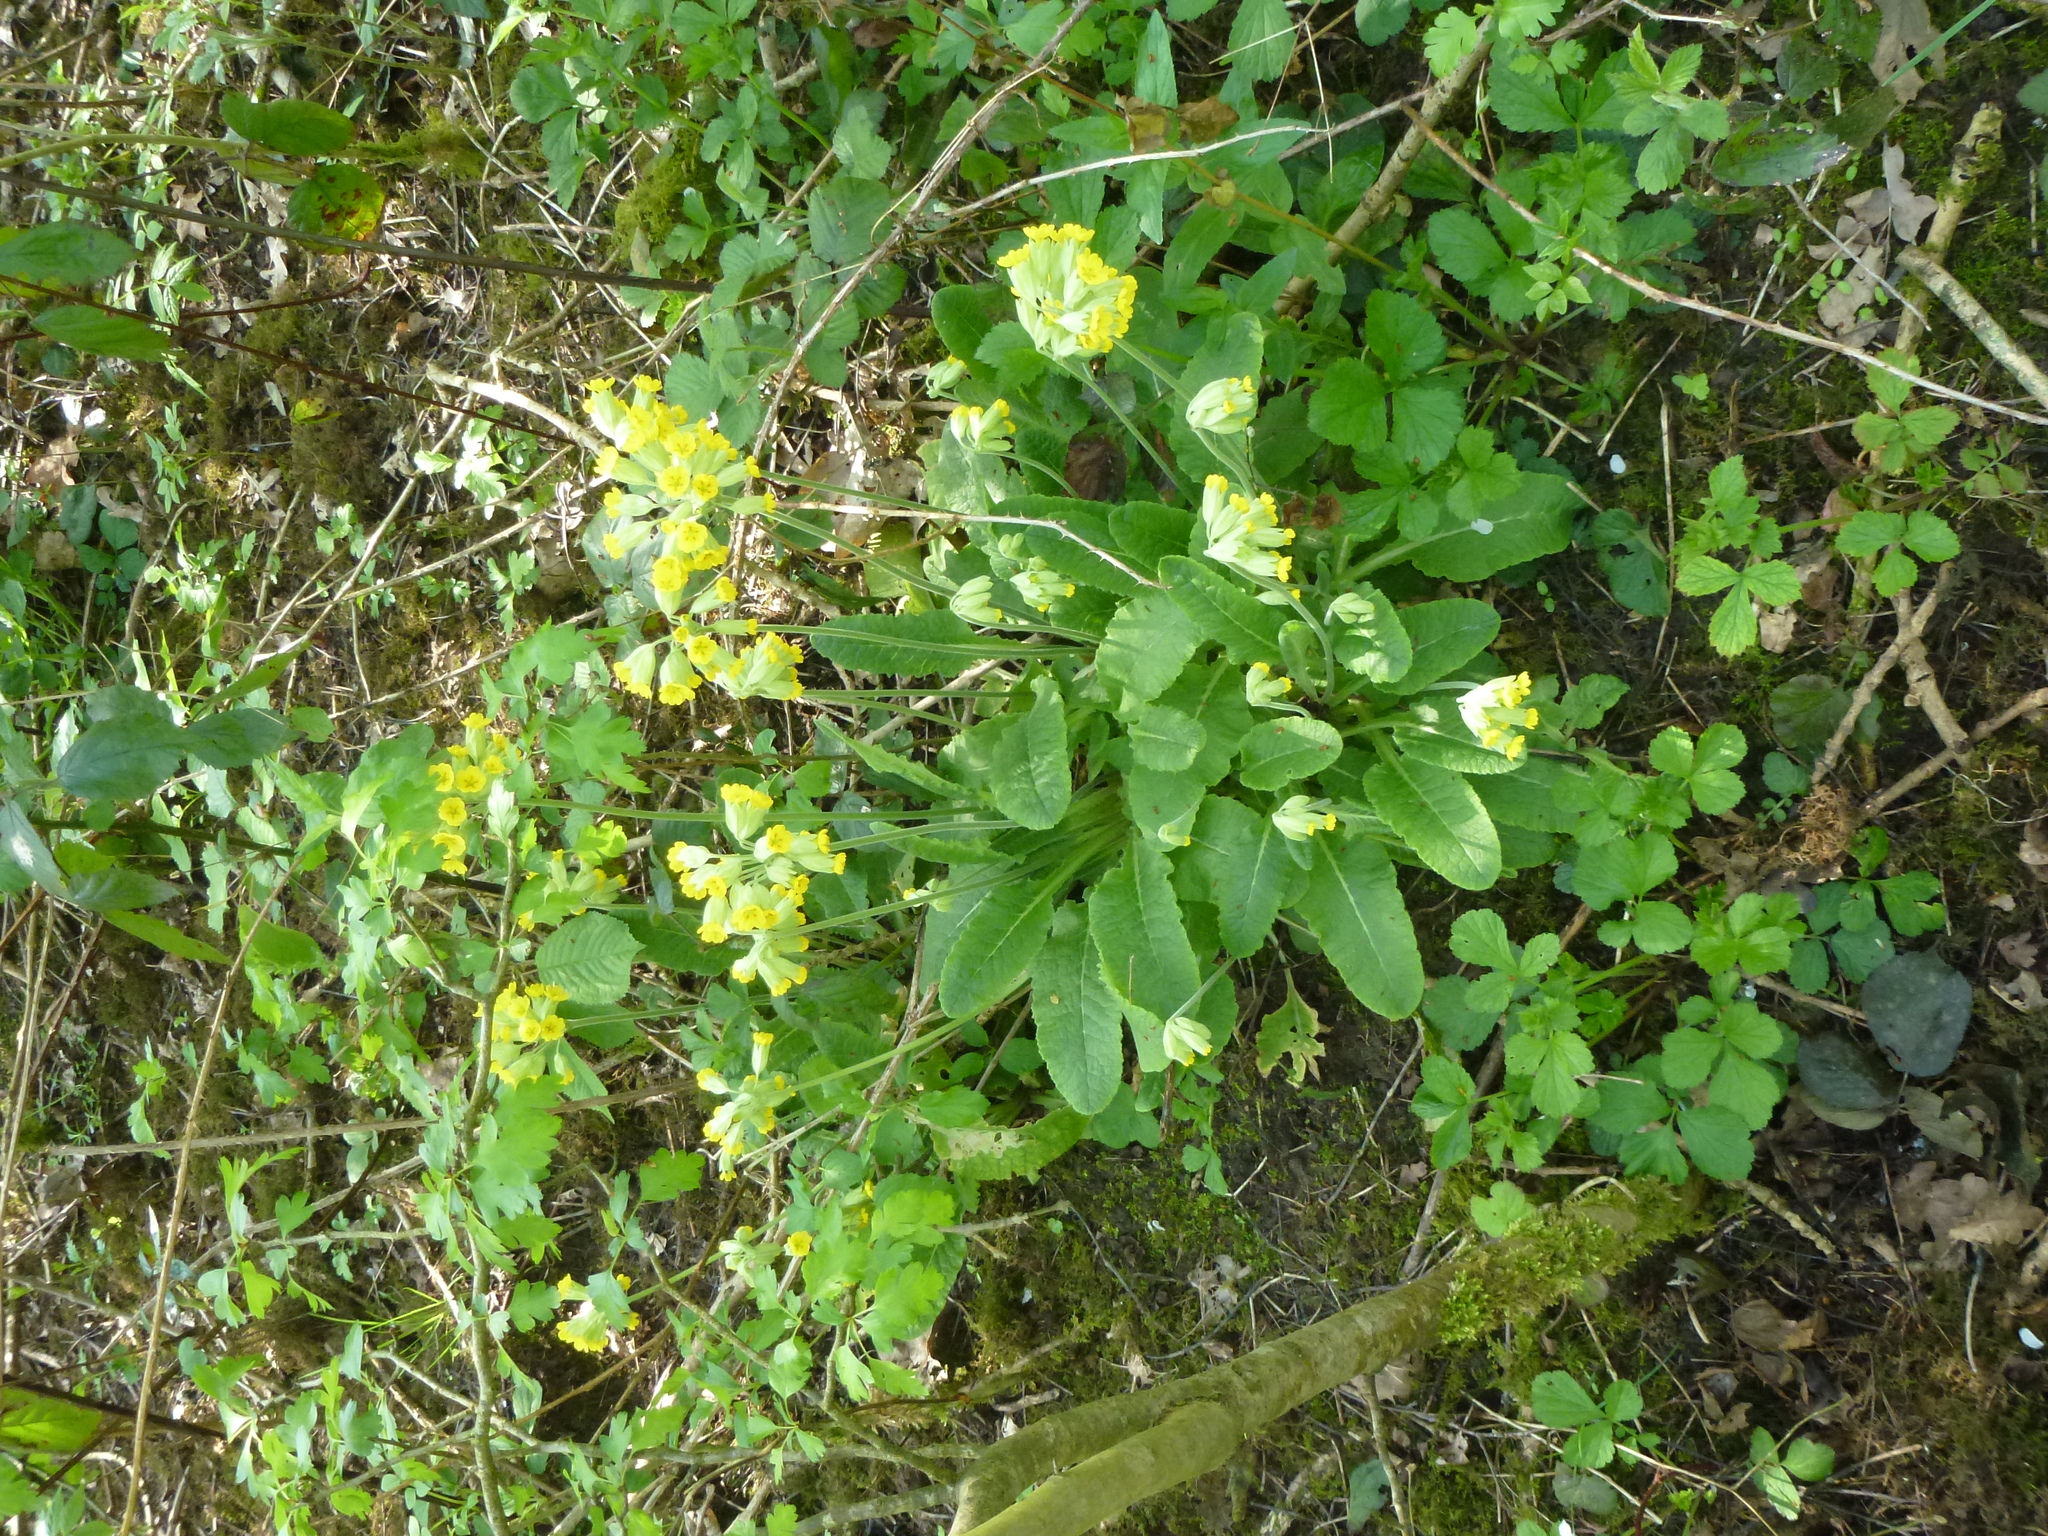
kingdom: Plantae
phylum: Tracheophyta
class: Magnoliopsida
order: Ericales
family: Primulaceae
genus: Primula
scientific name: Primula veris
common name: Cowslip
